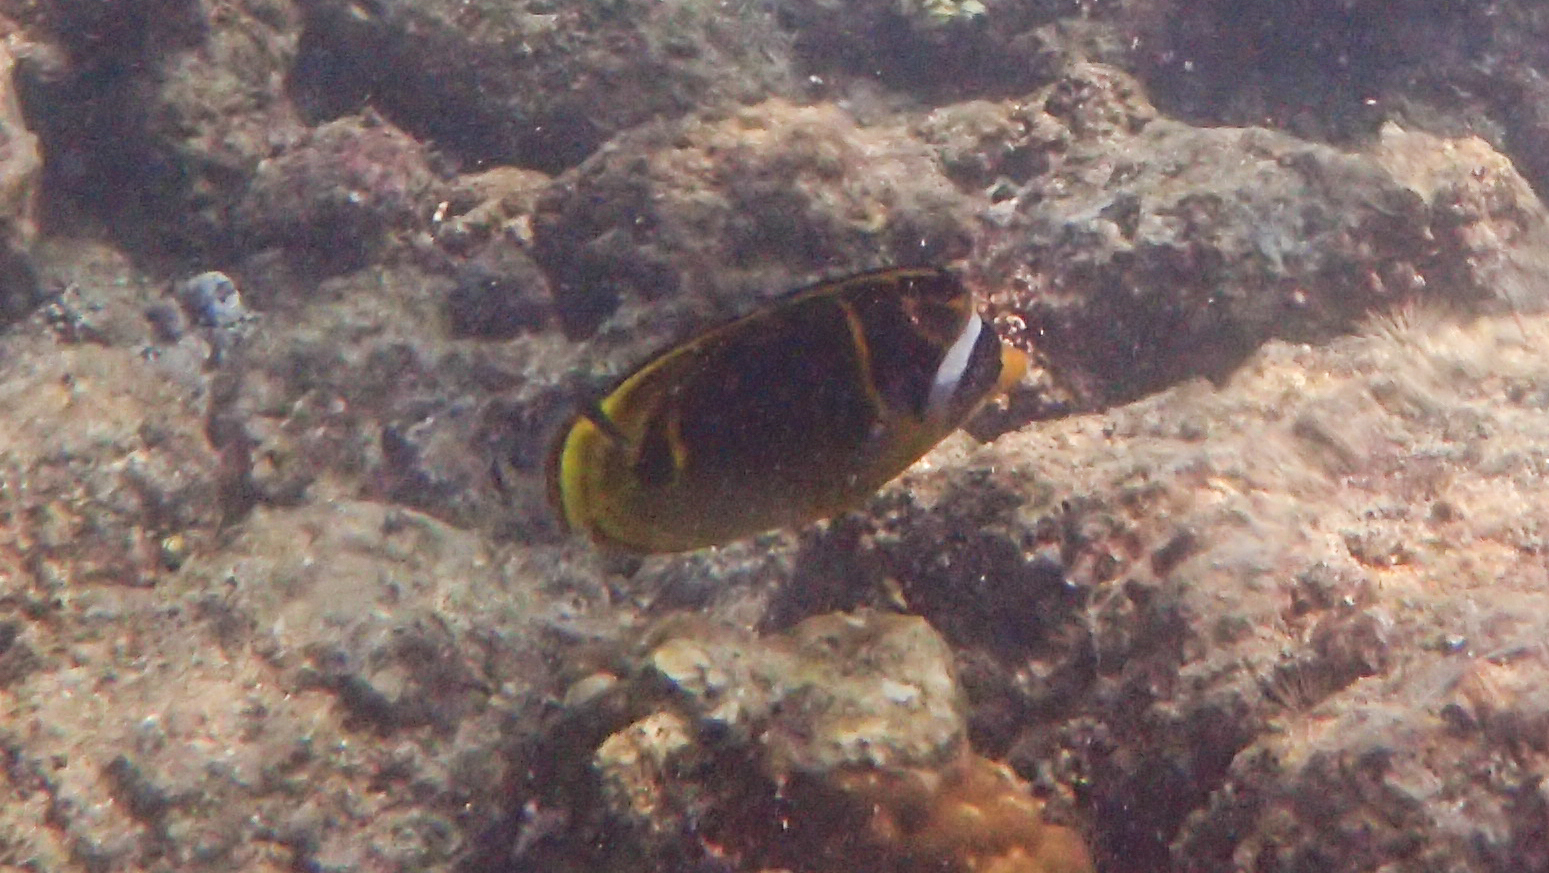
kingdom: Animalia
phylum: Chordata
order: Perciformes
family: Chaetodontidae
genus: Chaetodon
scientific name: Chaetodon lunula
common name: Raccoon butterflyfish
